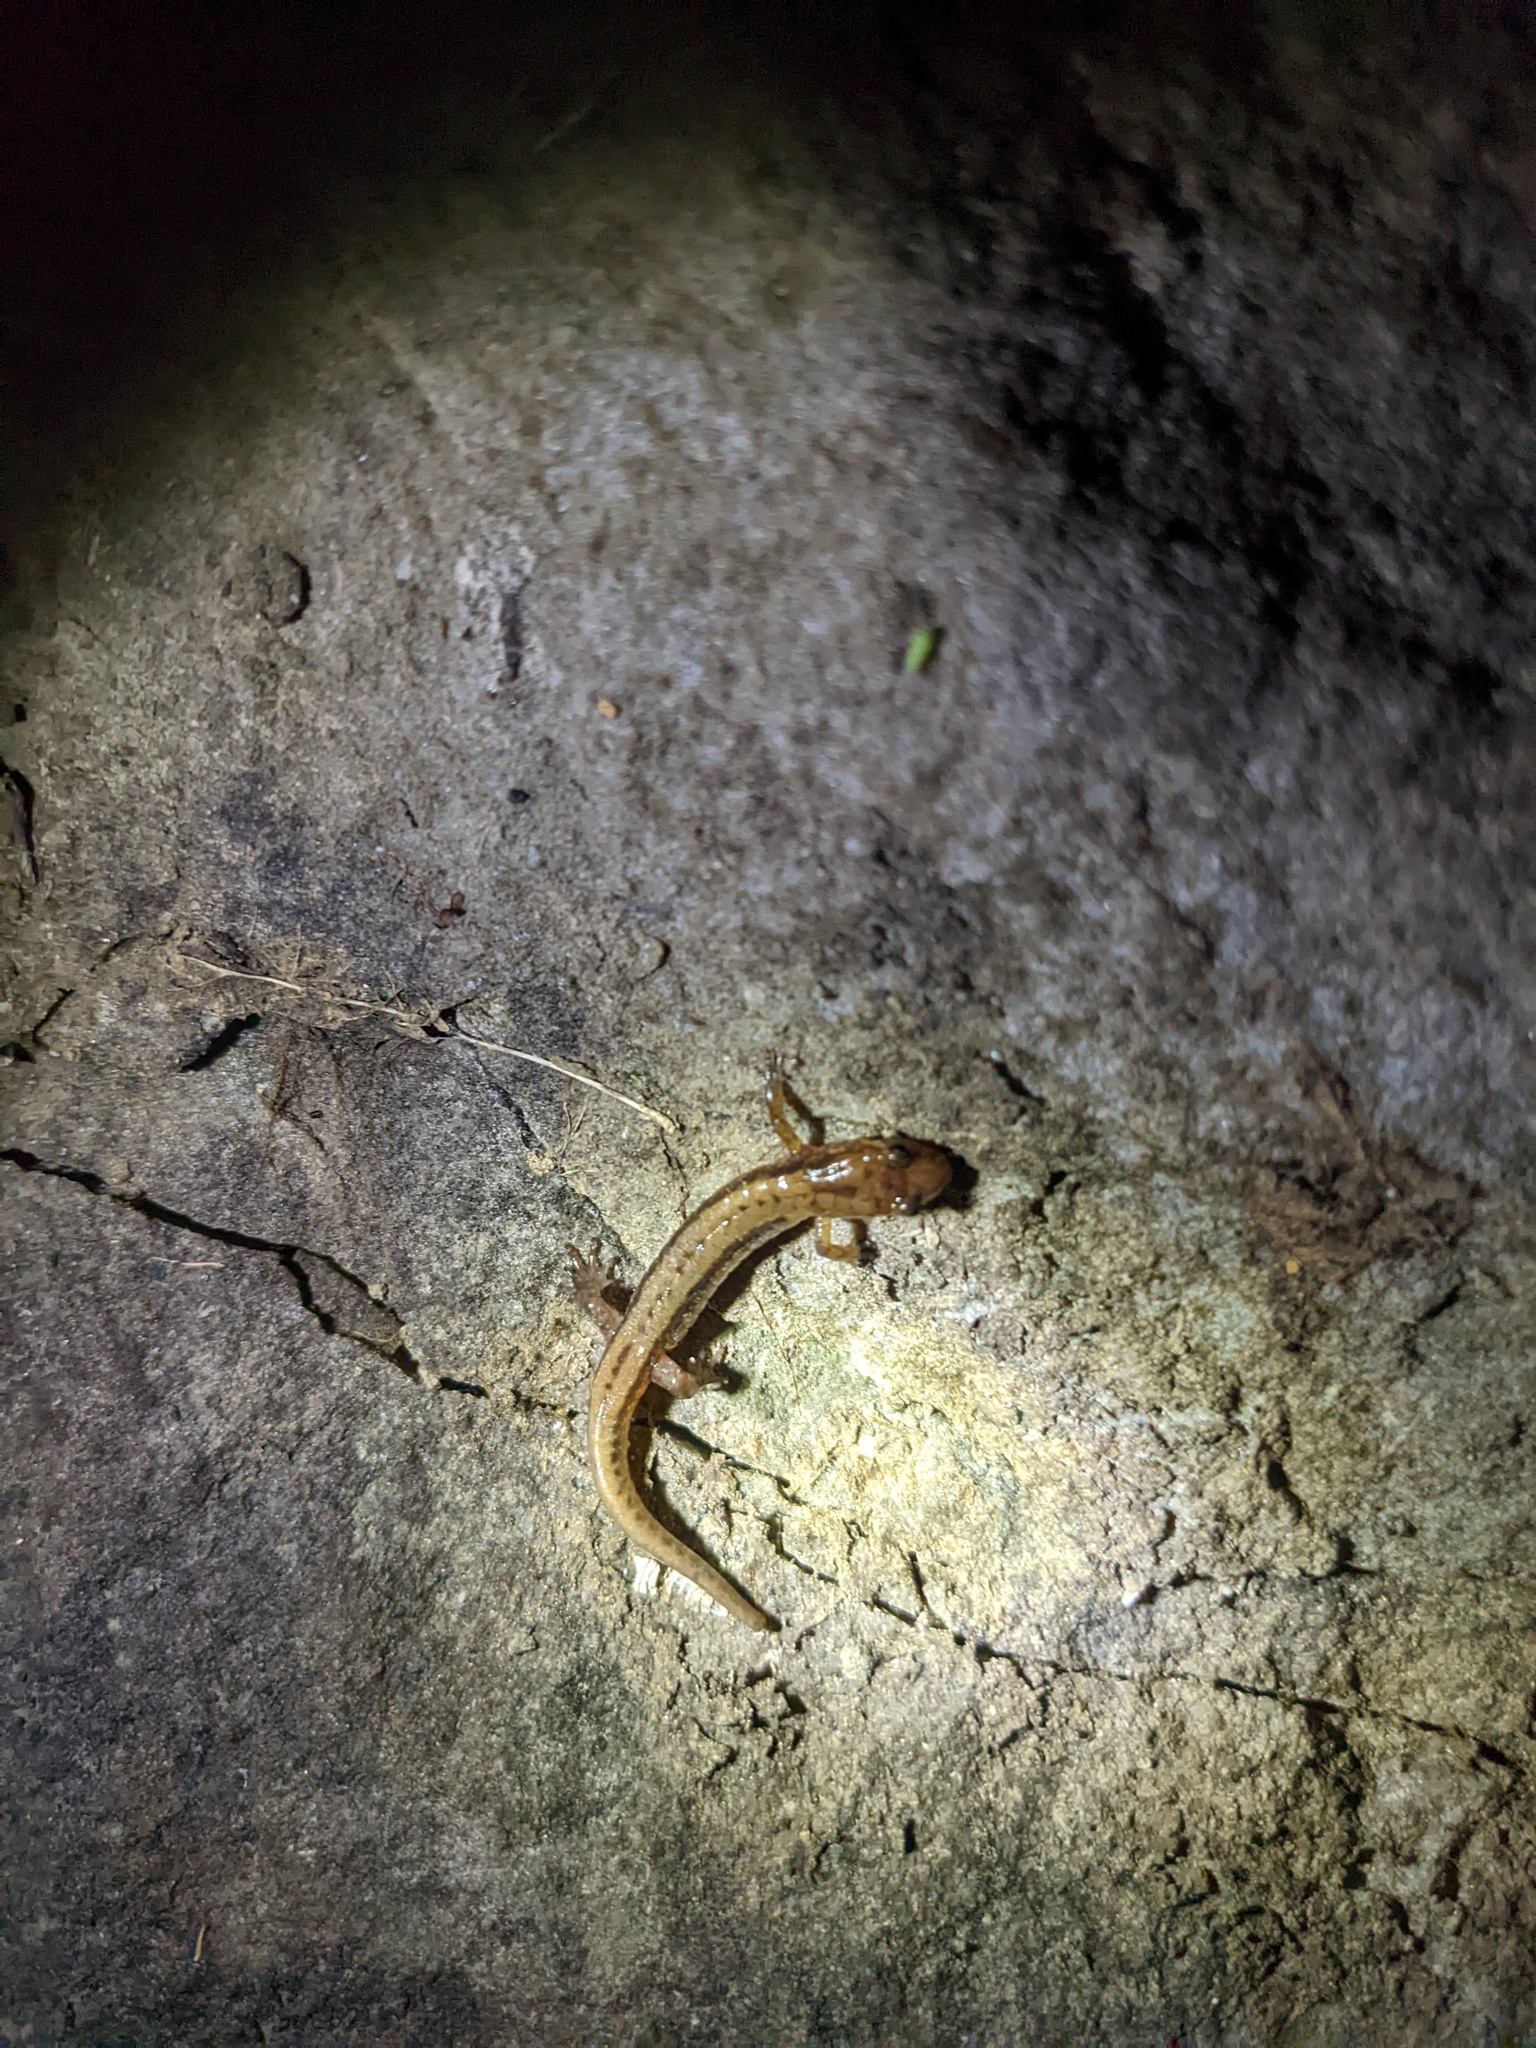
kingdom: Animalia
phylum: Chordata
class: Amphibia
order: Caudata
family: Plethodontidae
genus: Desmognathus
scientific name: Desmognathus ochrophaeus
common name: Allegheny mountain dusky salamander
